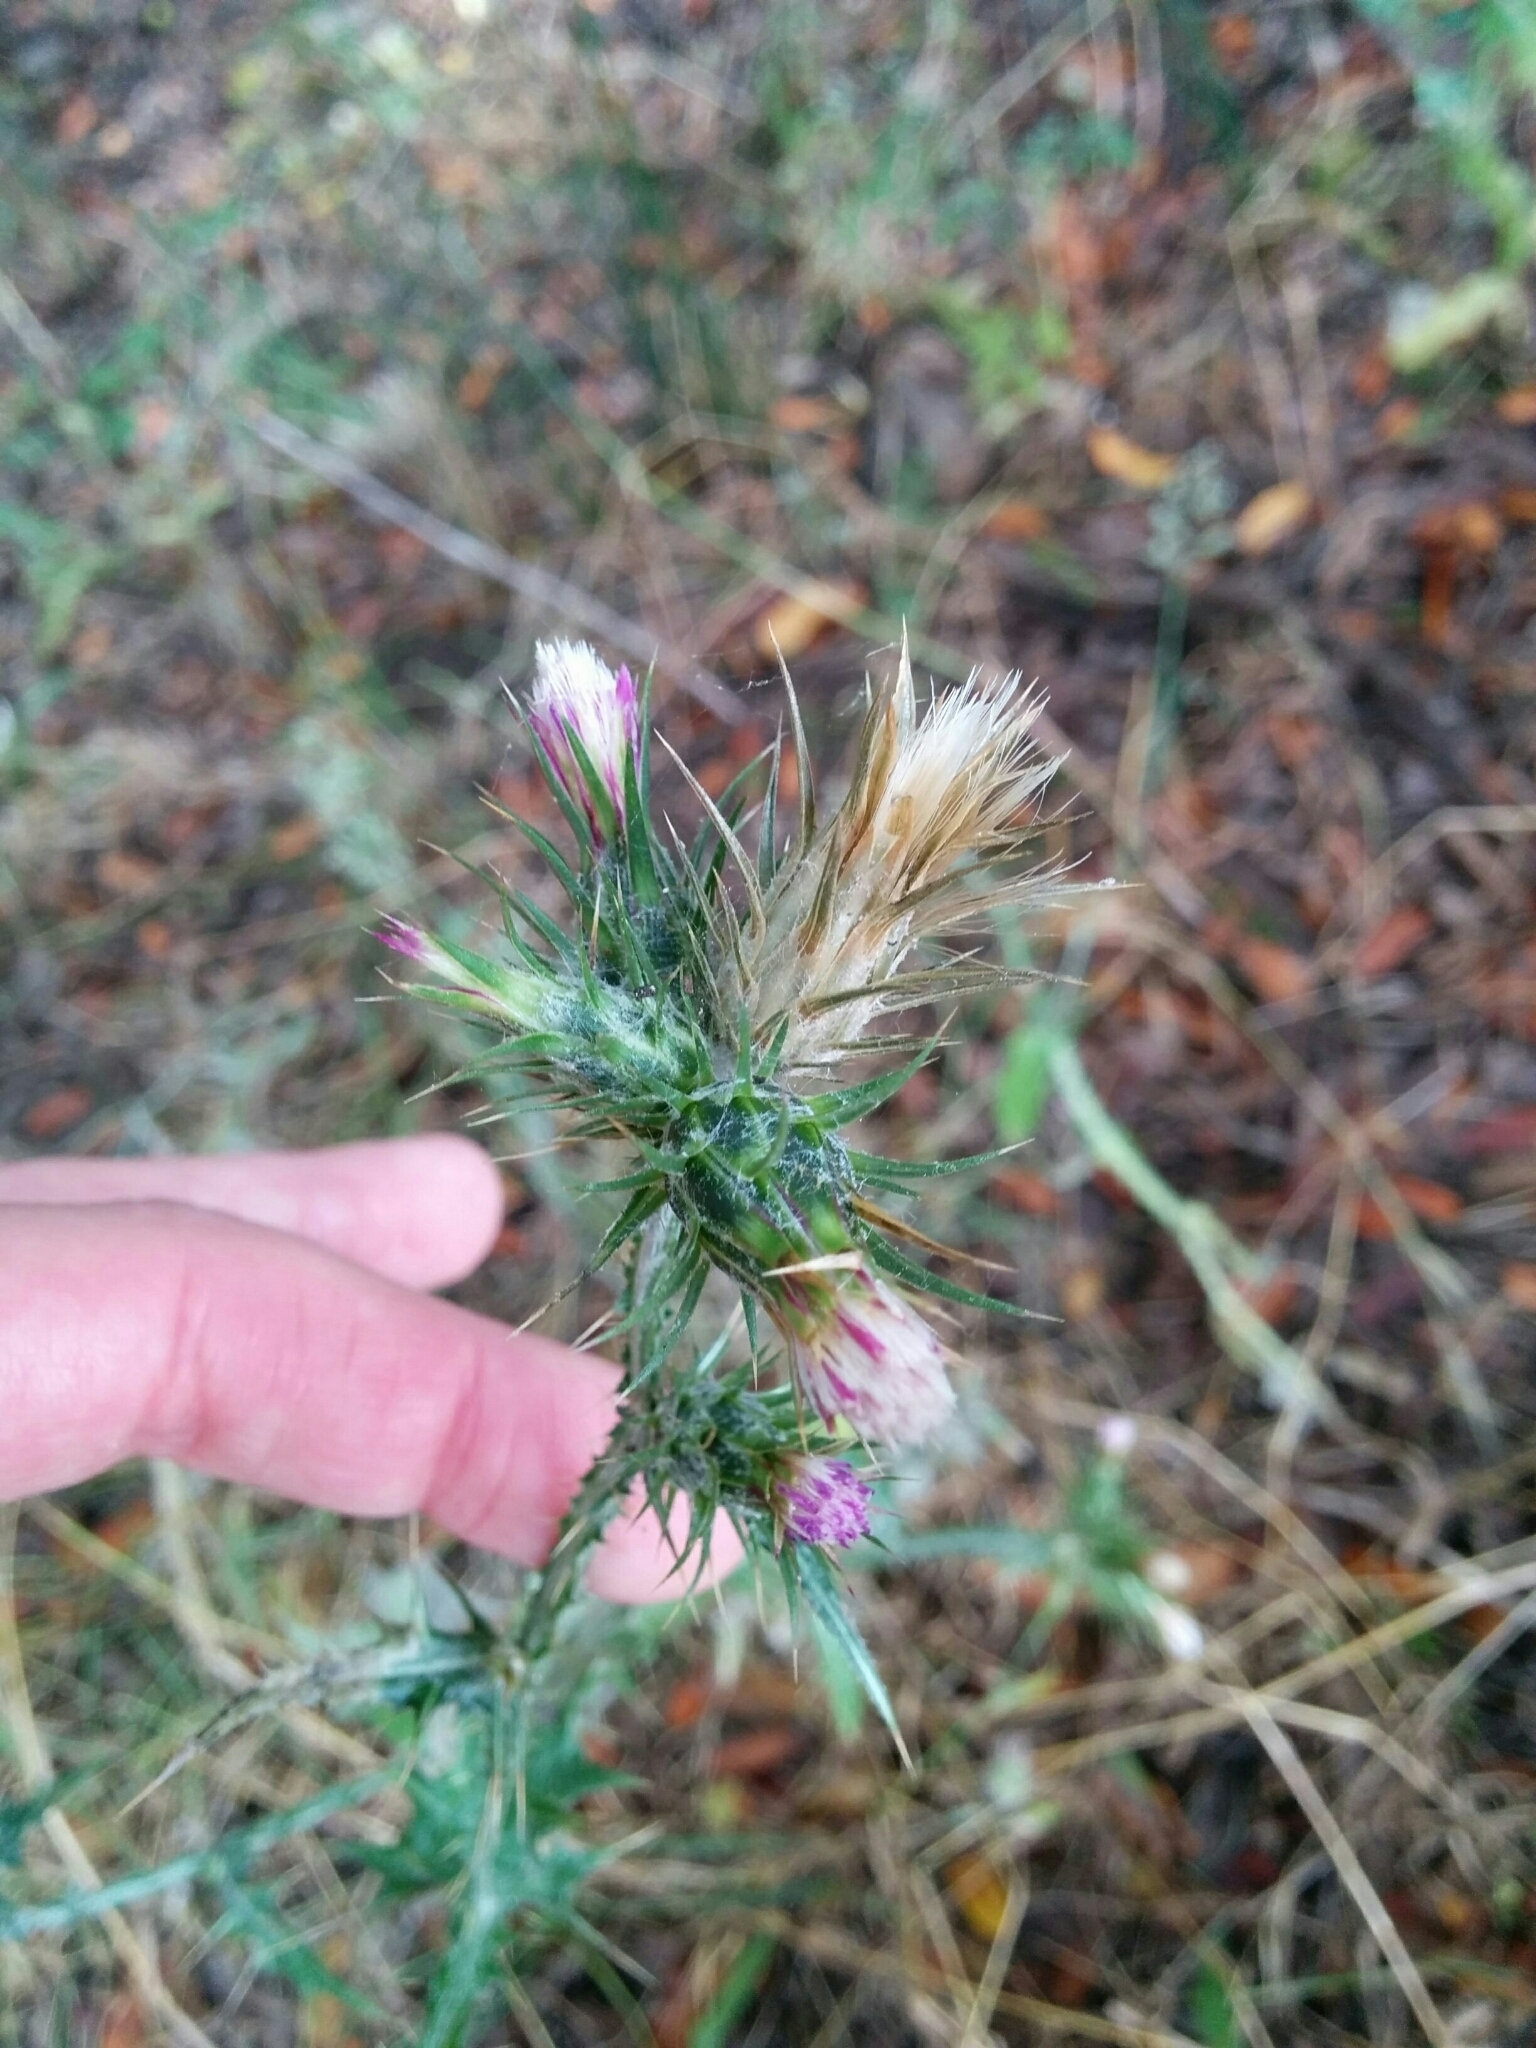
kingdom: Plantae
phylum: Tracheophyta
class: Magnoliopsida
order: Asterales
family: Asteraceae
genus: Carduus
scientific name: Carduus pycnocephalus
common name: Plymouth thistle
